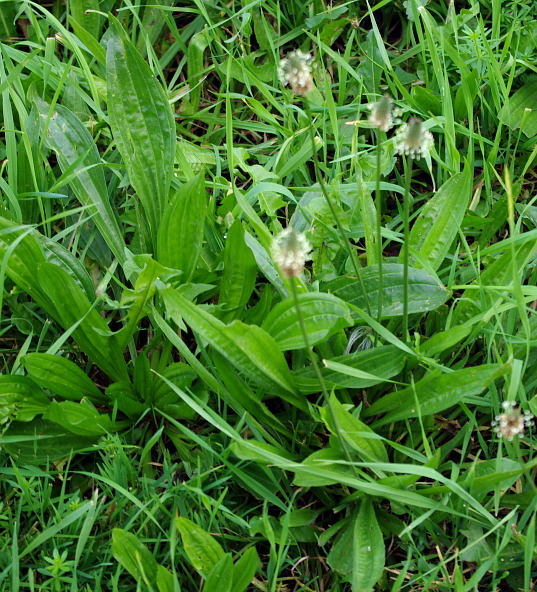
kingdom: Plantae
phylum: Tracheophyta
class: Magnoliopsida
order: Lamiales
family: Plantaginaceae
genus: Plantago
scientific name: Plantago lanceolata
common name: Ribwort plantain
